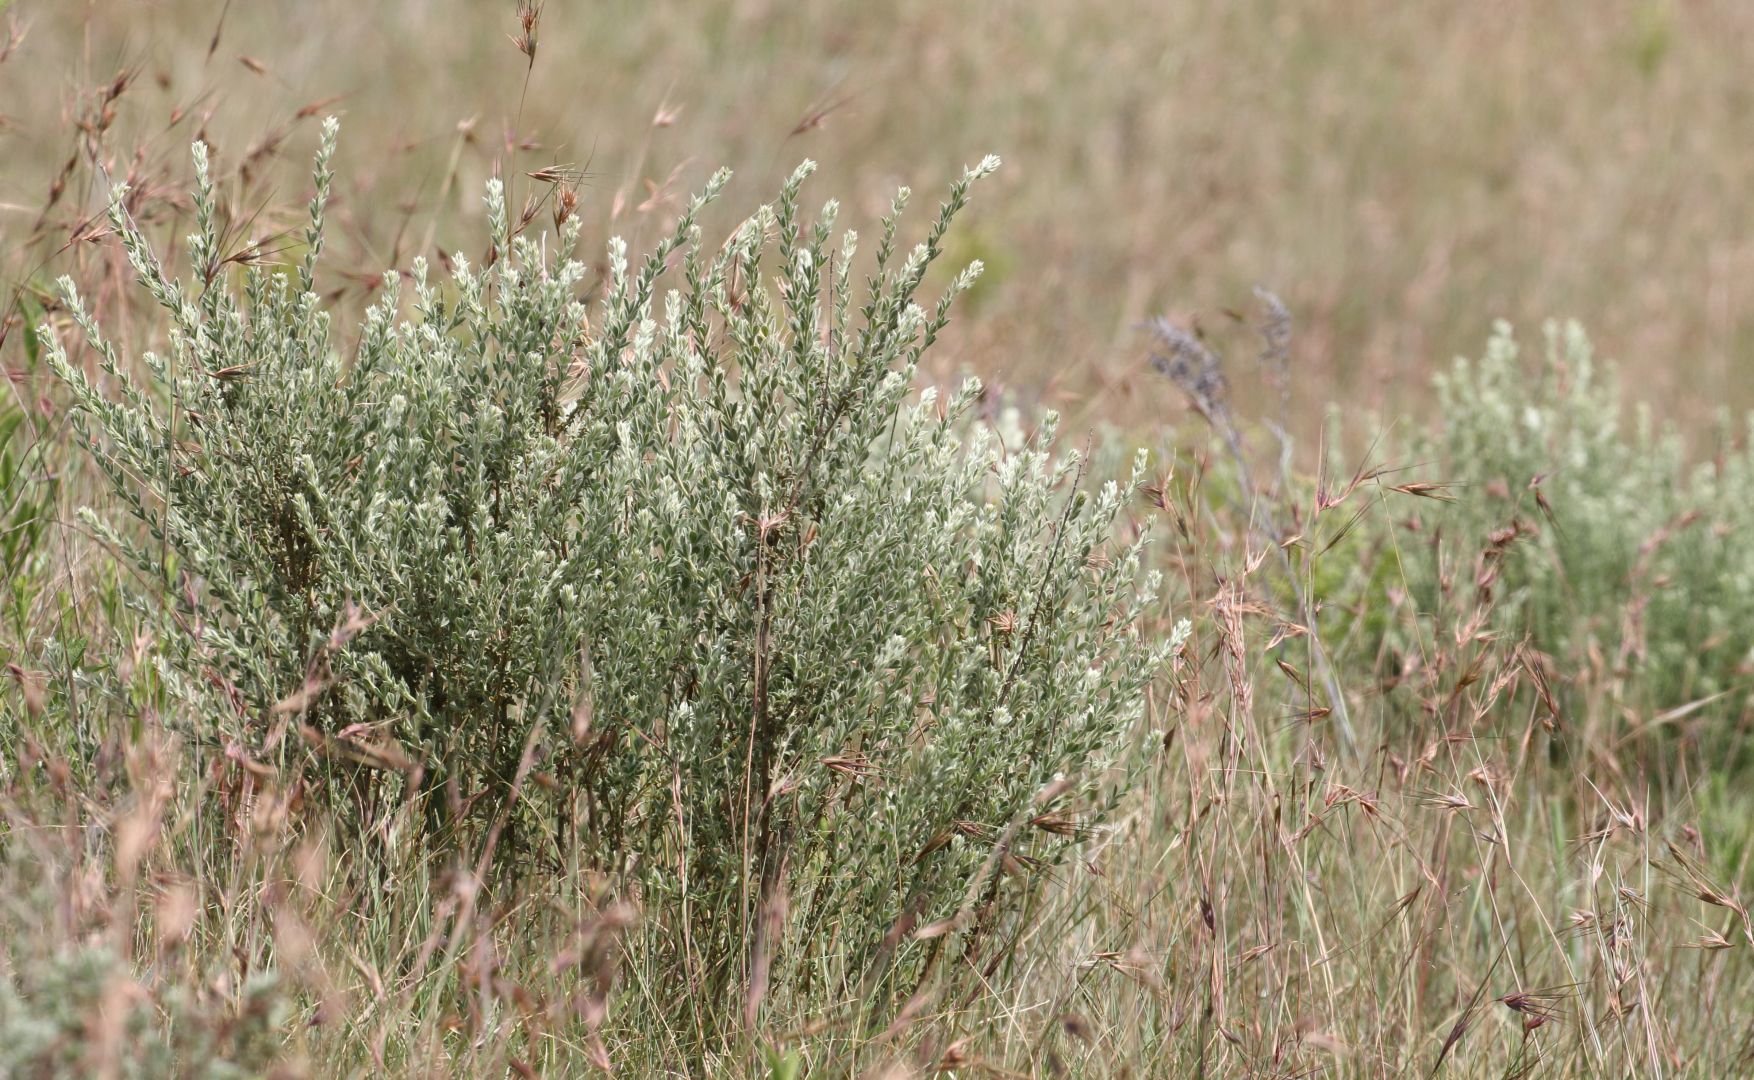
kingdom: Plantae
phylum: Tracheophyta
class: Magnoliopsida
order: Fabales
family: Fabaceae
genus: Lotononis
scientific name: Lotononis lotononoides
